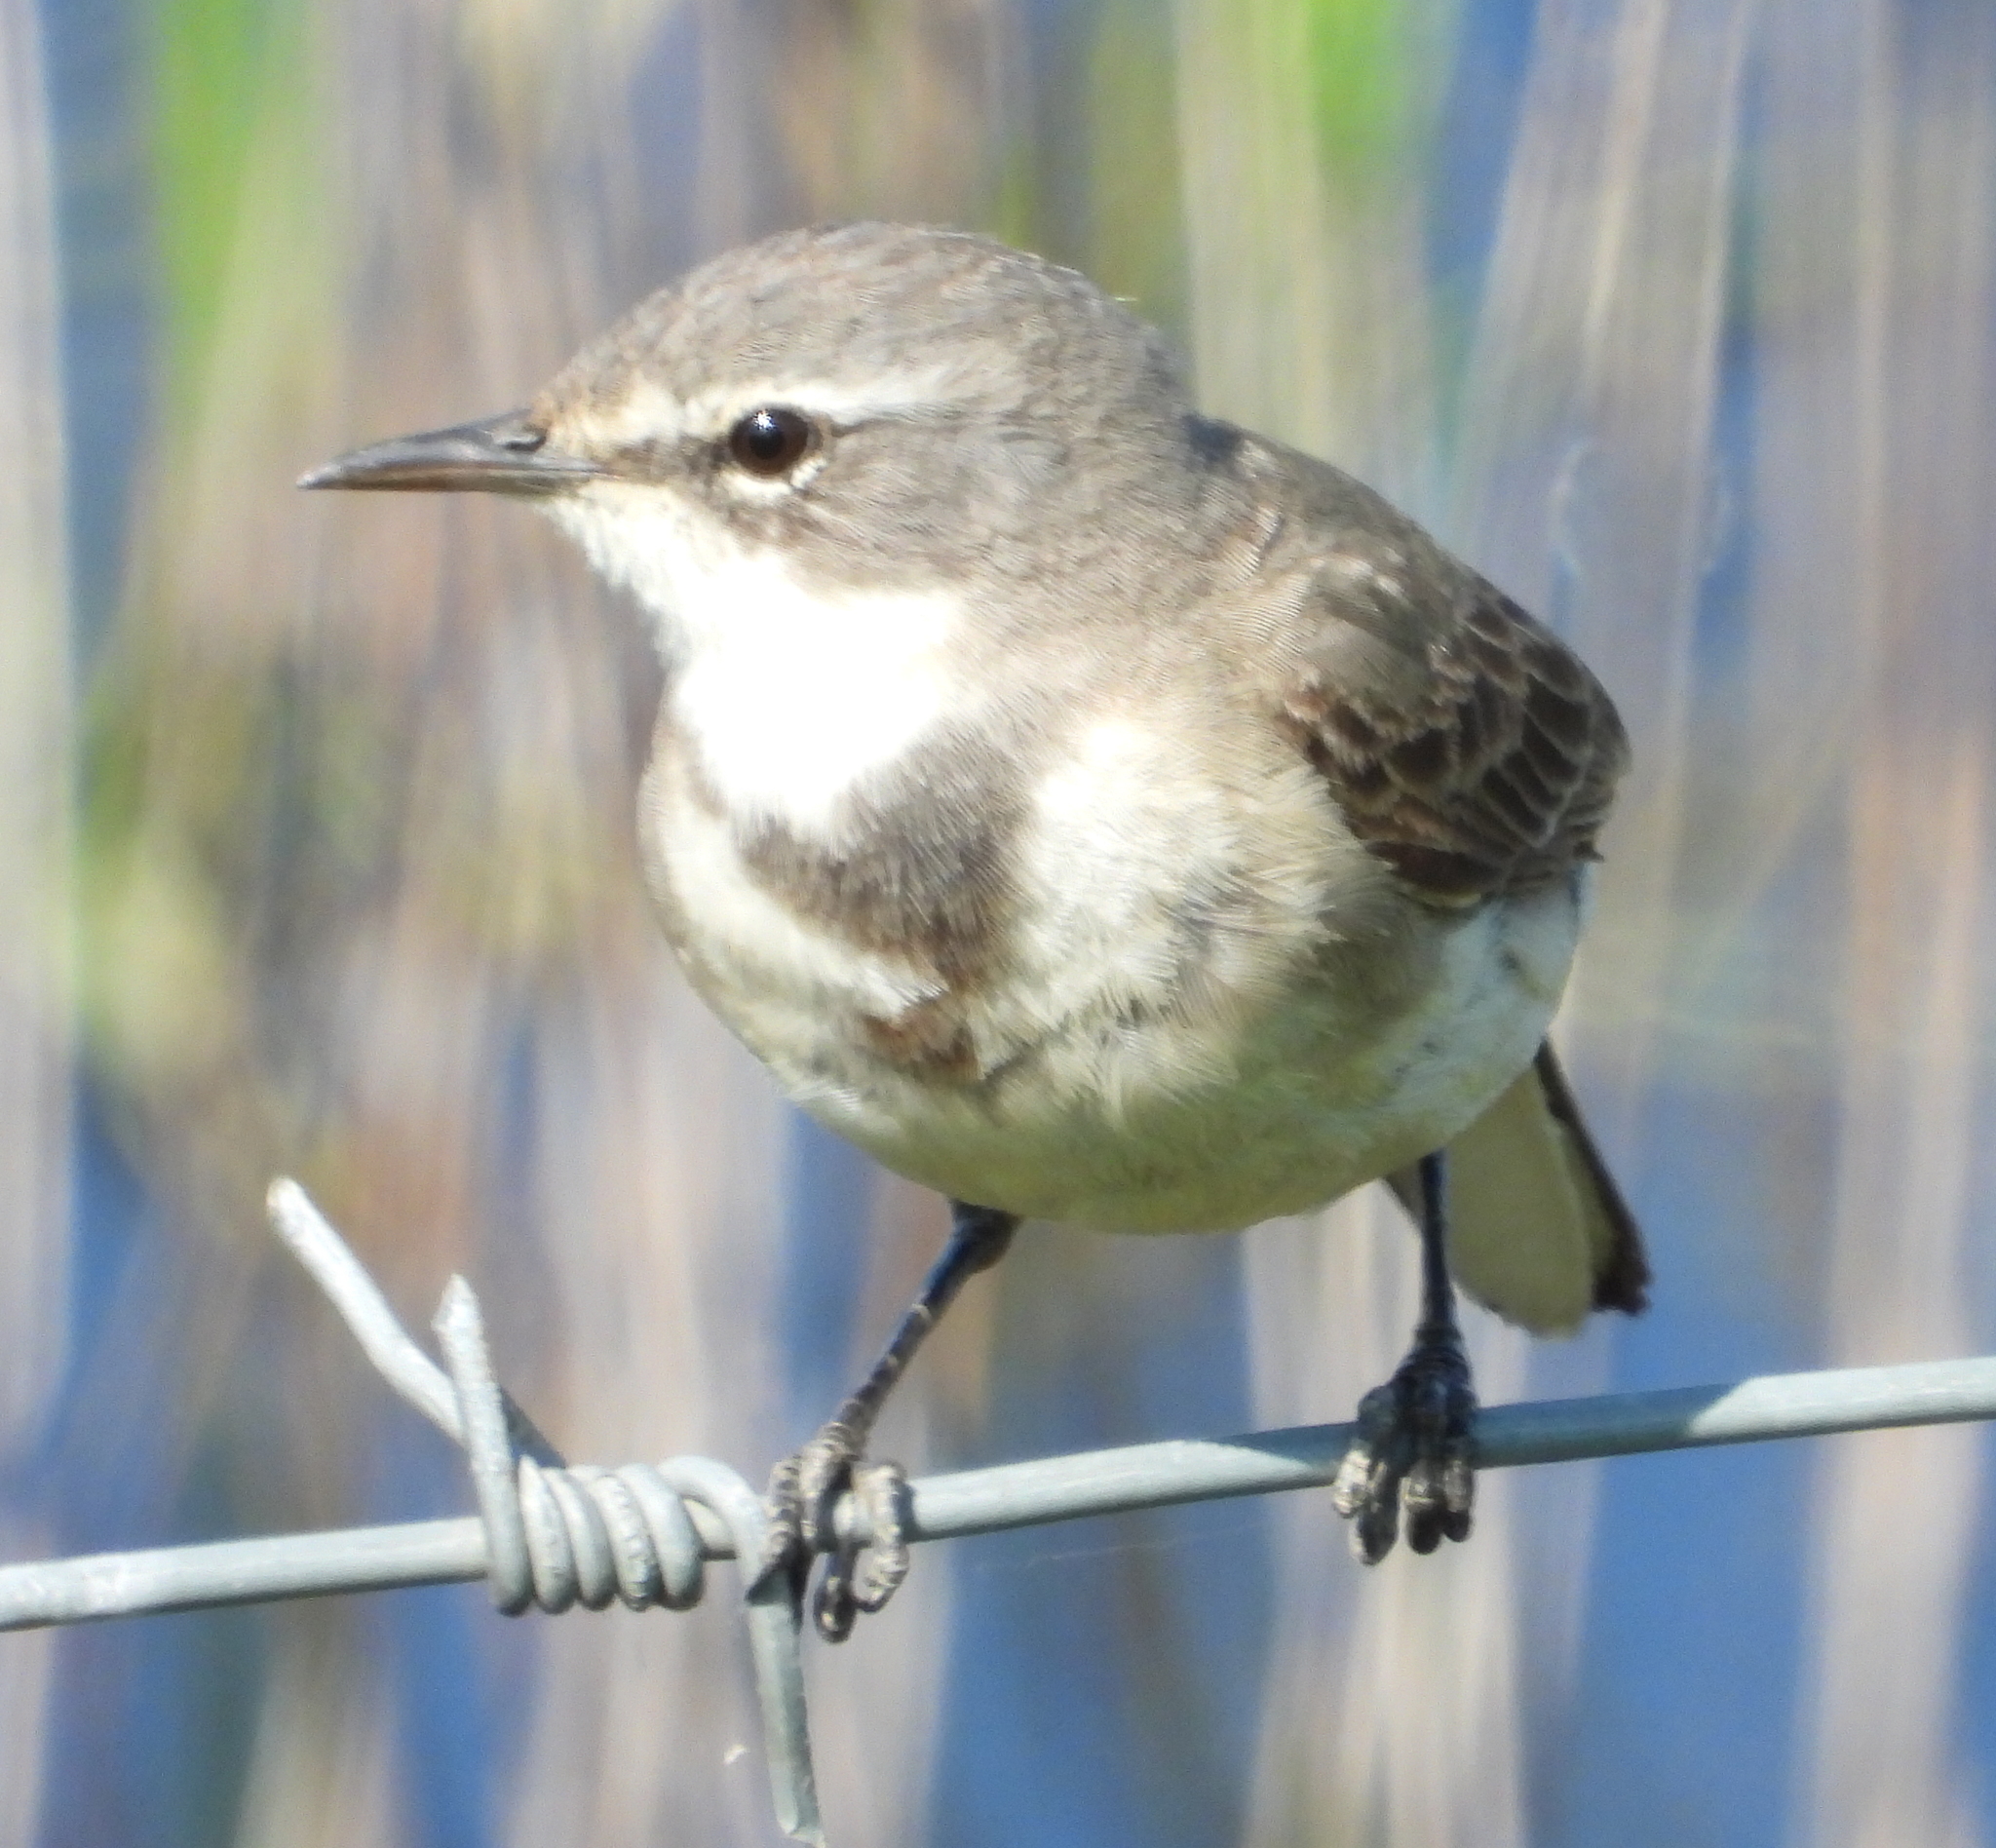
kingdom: Animalia
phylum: Chordata
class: Aves
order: Passeriformes
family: Motacillidae
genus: Motacilla
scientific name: Motacilla capensis
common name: Cape wagtail
